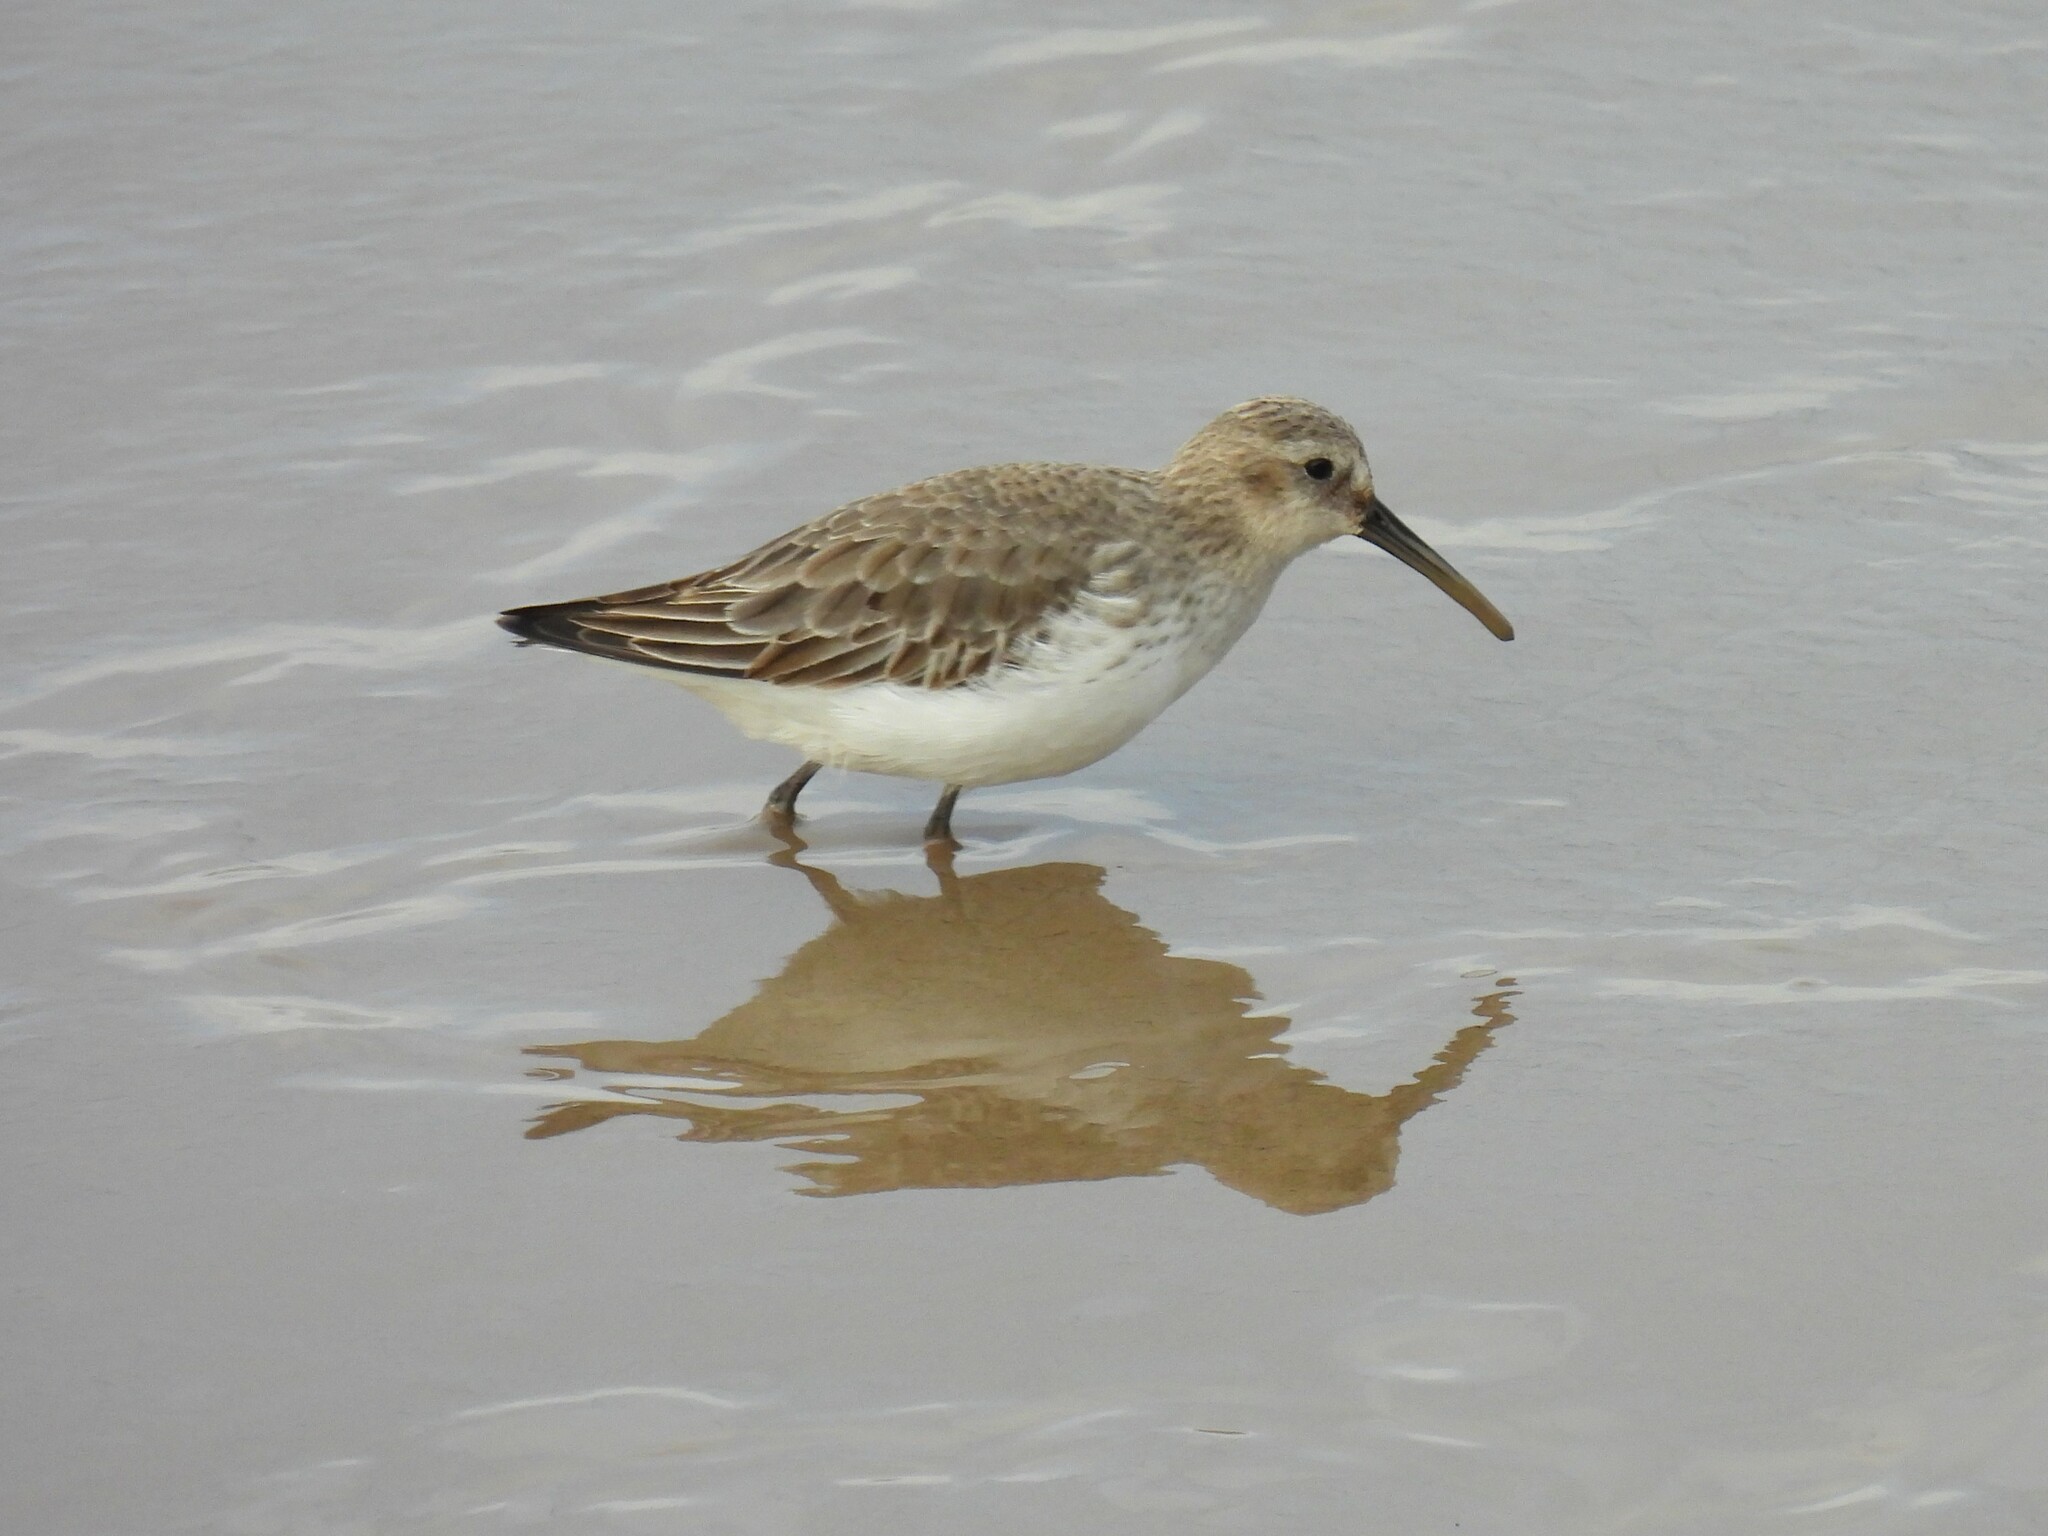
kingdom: Animalia
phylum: Chordata
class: Aves
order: Charadriiformes
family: Scolopacidae
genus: Calidris
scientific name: Calidris alpina
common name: Dunlin
